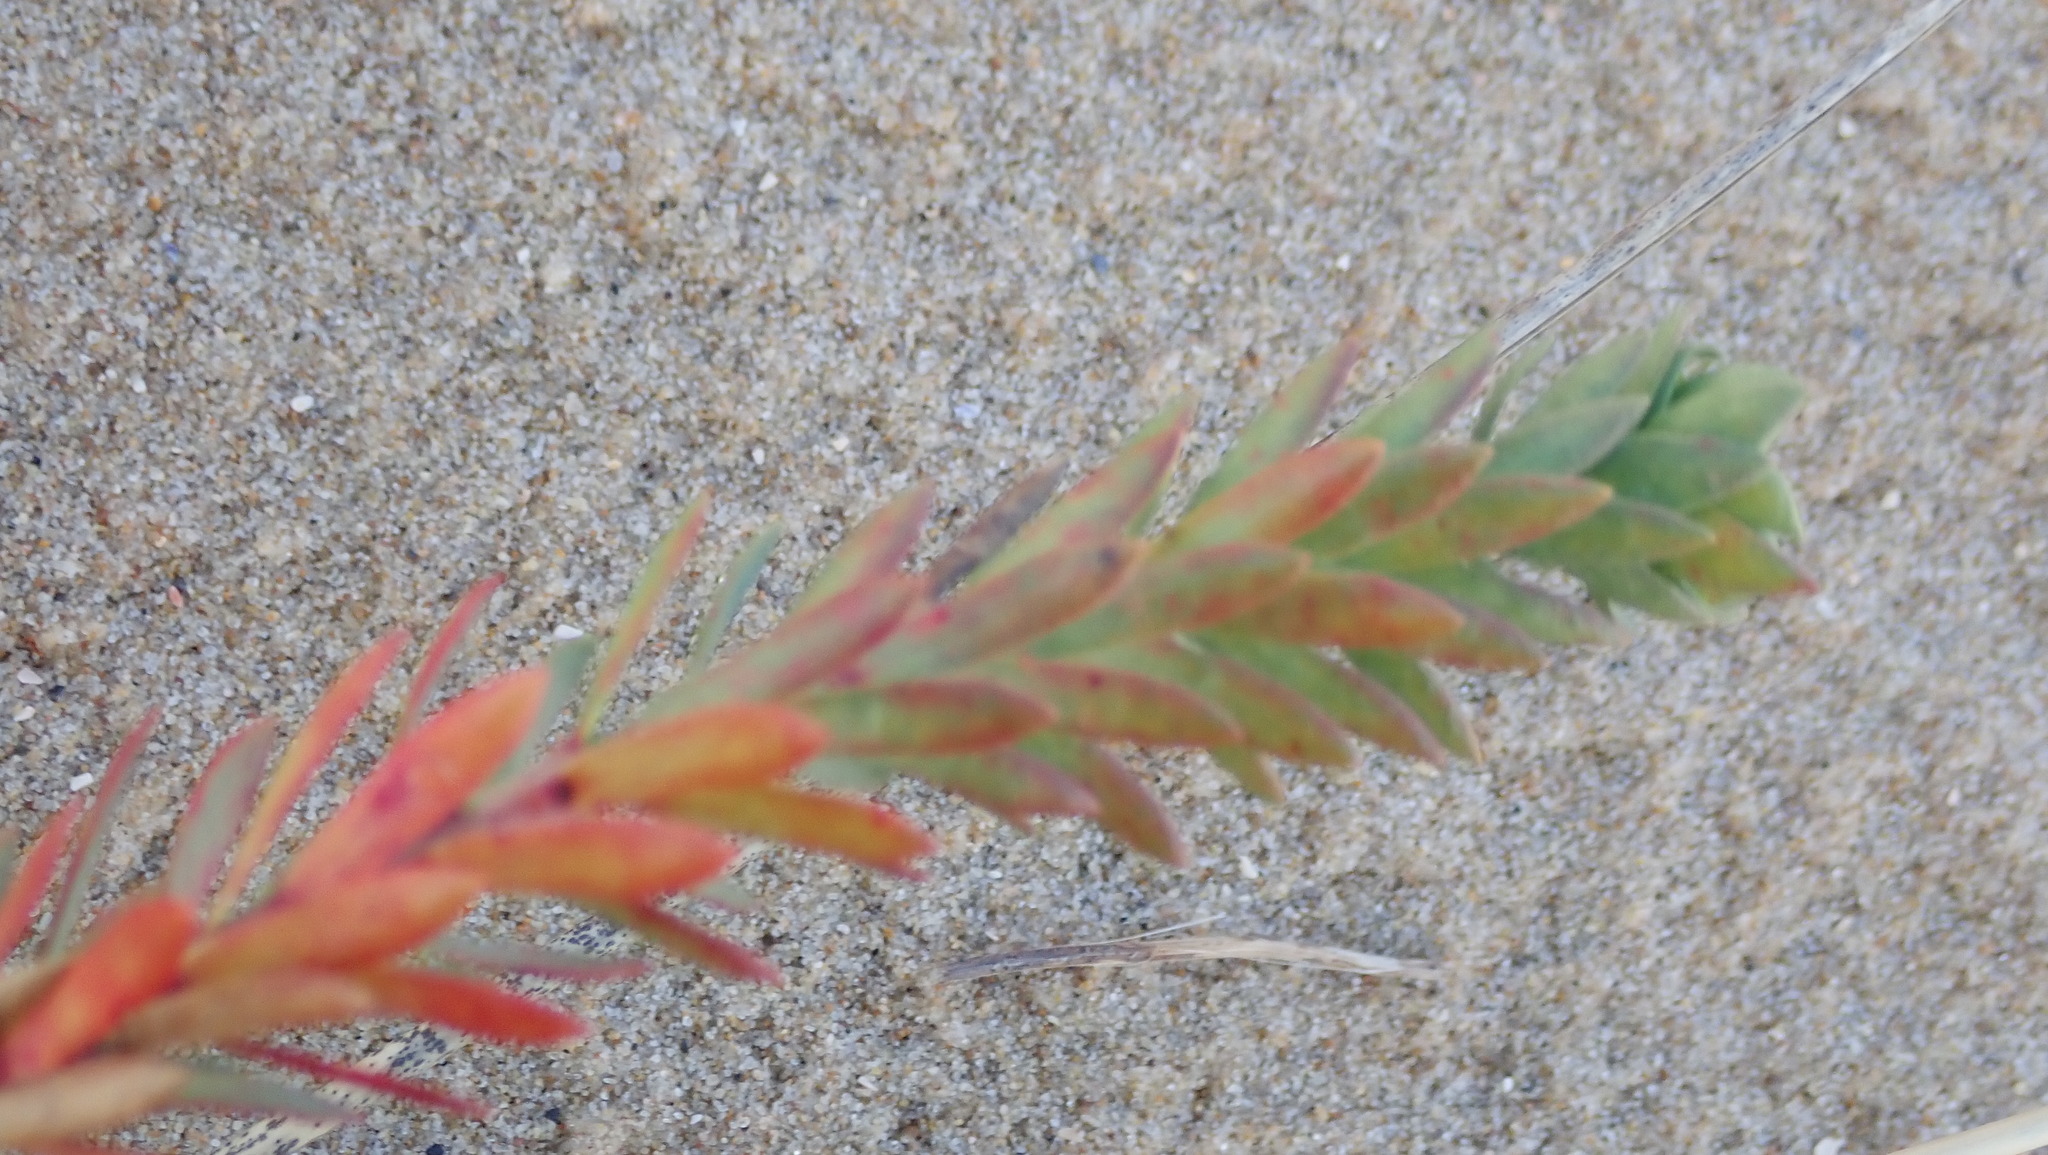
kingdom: Plantae
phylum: Tracheophyta
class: Magnoliopsida
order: Malpighiales
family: Euphorbiaceae
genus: Euphorbia
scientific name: Euphorbia paralias
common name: Sea spurge
